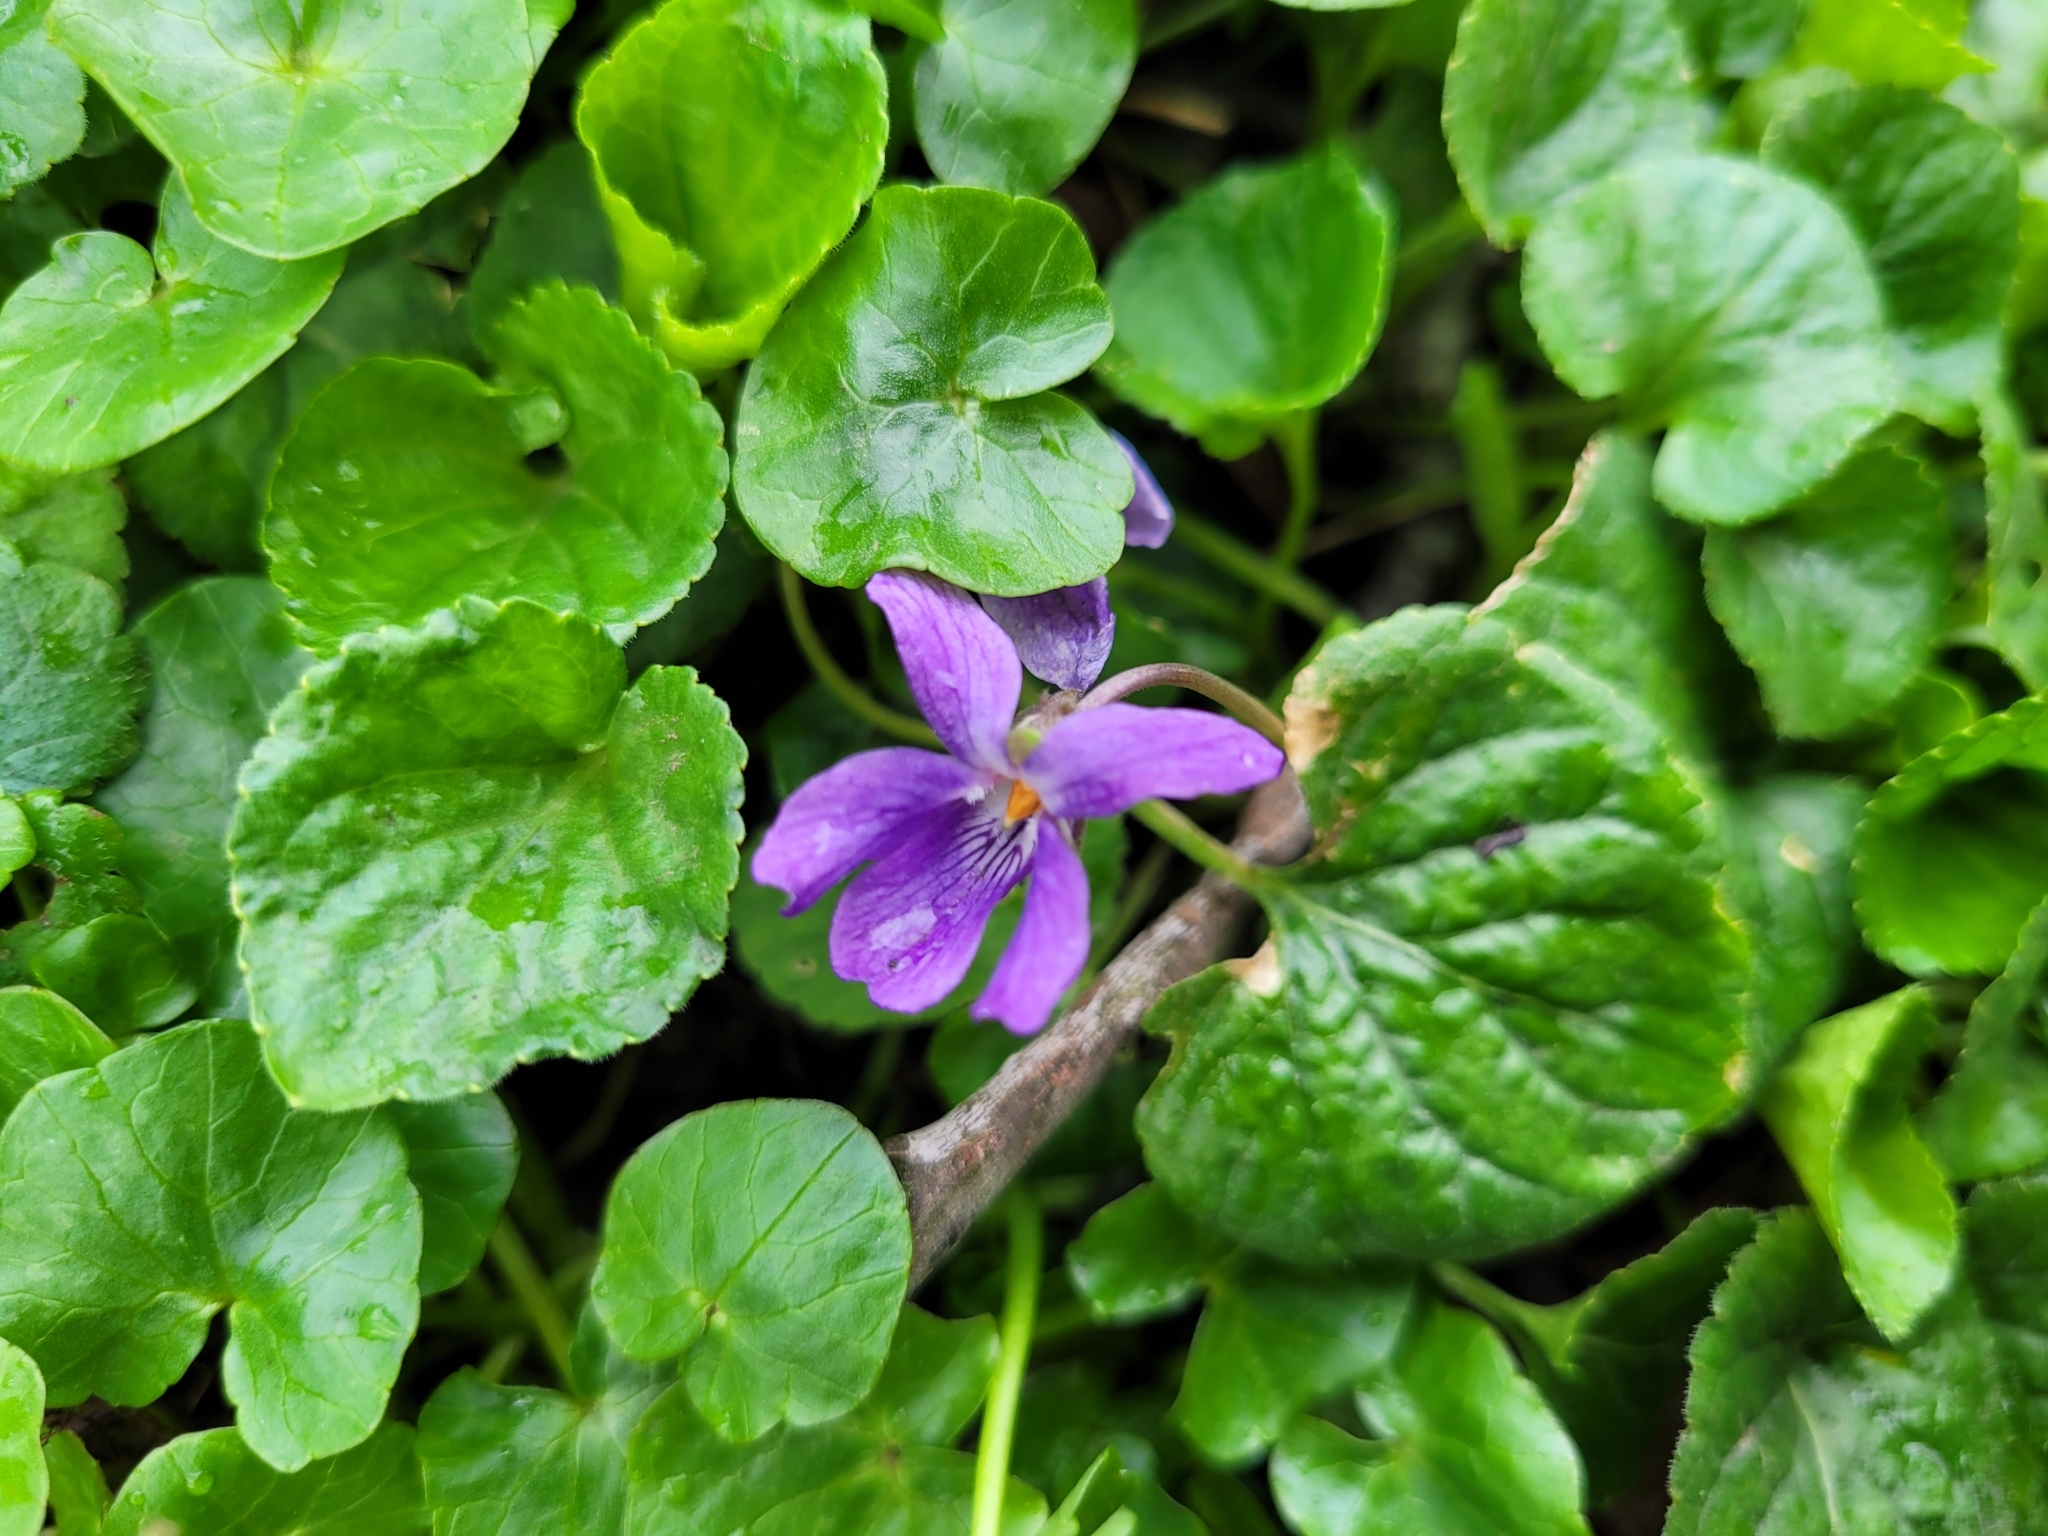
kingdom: Plantae
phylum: Tracheophyta
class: Magnoliopsida
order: Malpighiales
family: Violaceae
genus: Viola
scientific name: Viola odorata
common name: Sweet violet
